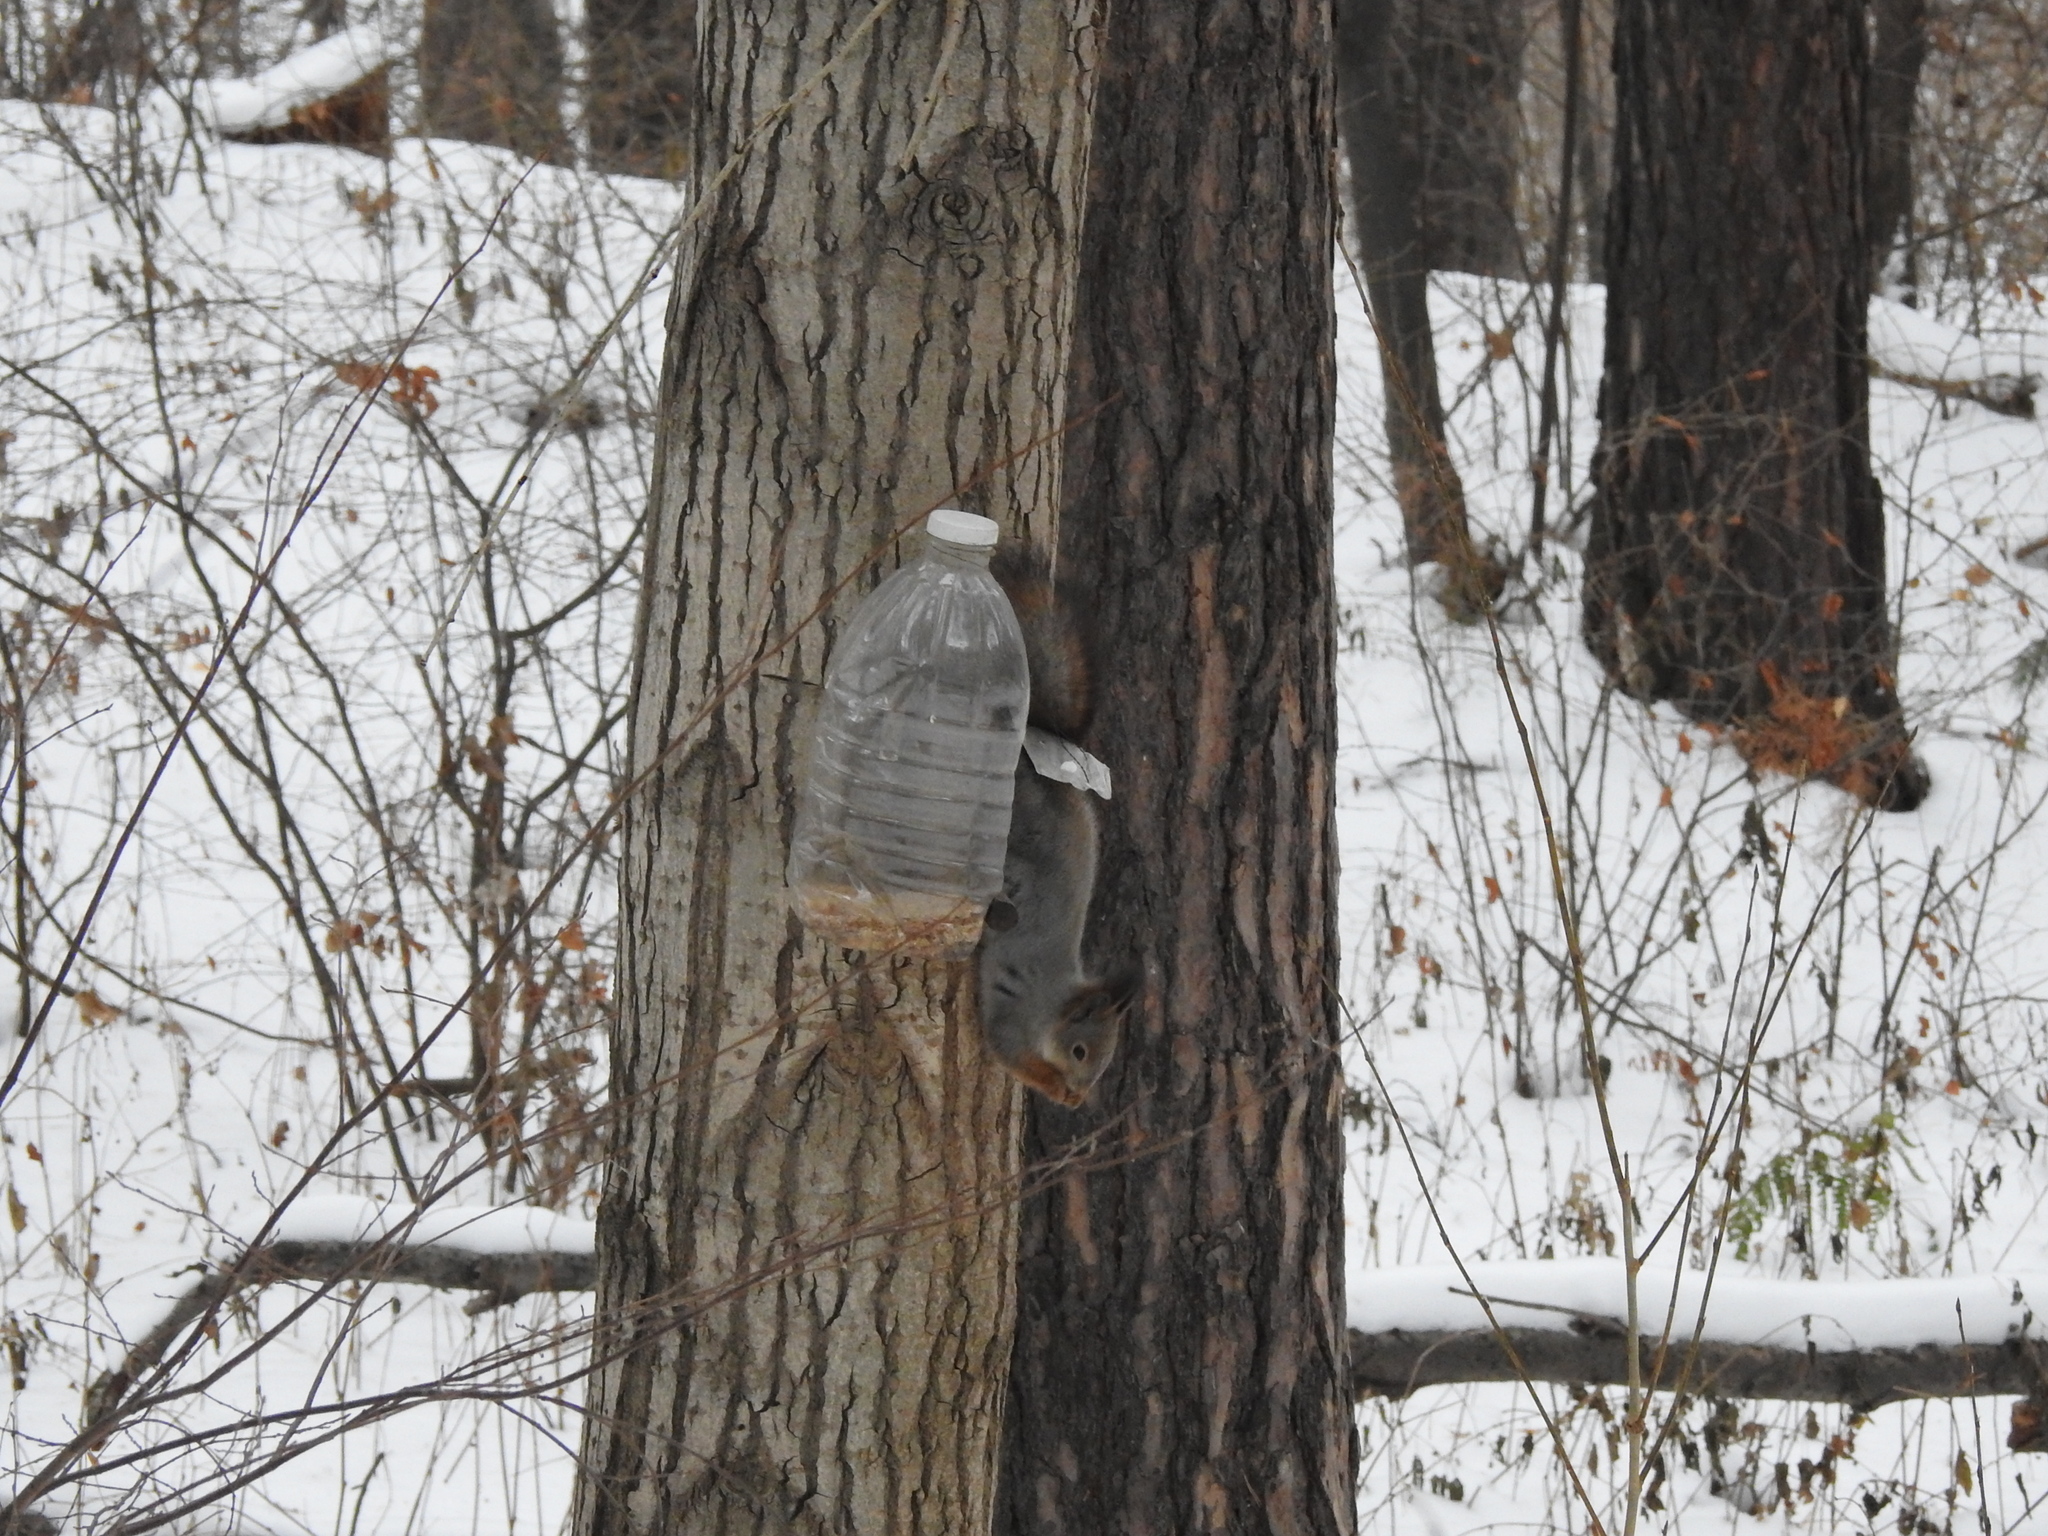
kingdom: Animalia
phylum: Chordata
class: Mammalia
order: Rodentia
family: Sciuridae
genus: Sciurus
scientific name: Sciurus vulgaris
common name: Eurasian red squirrel
